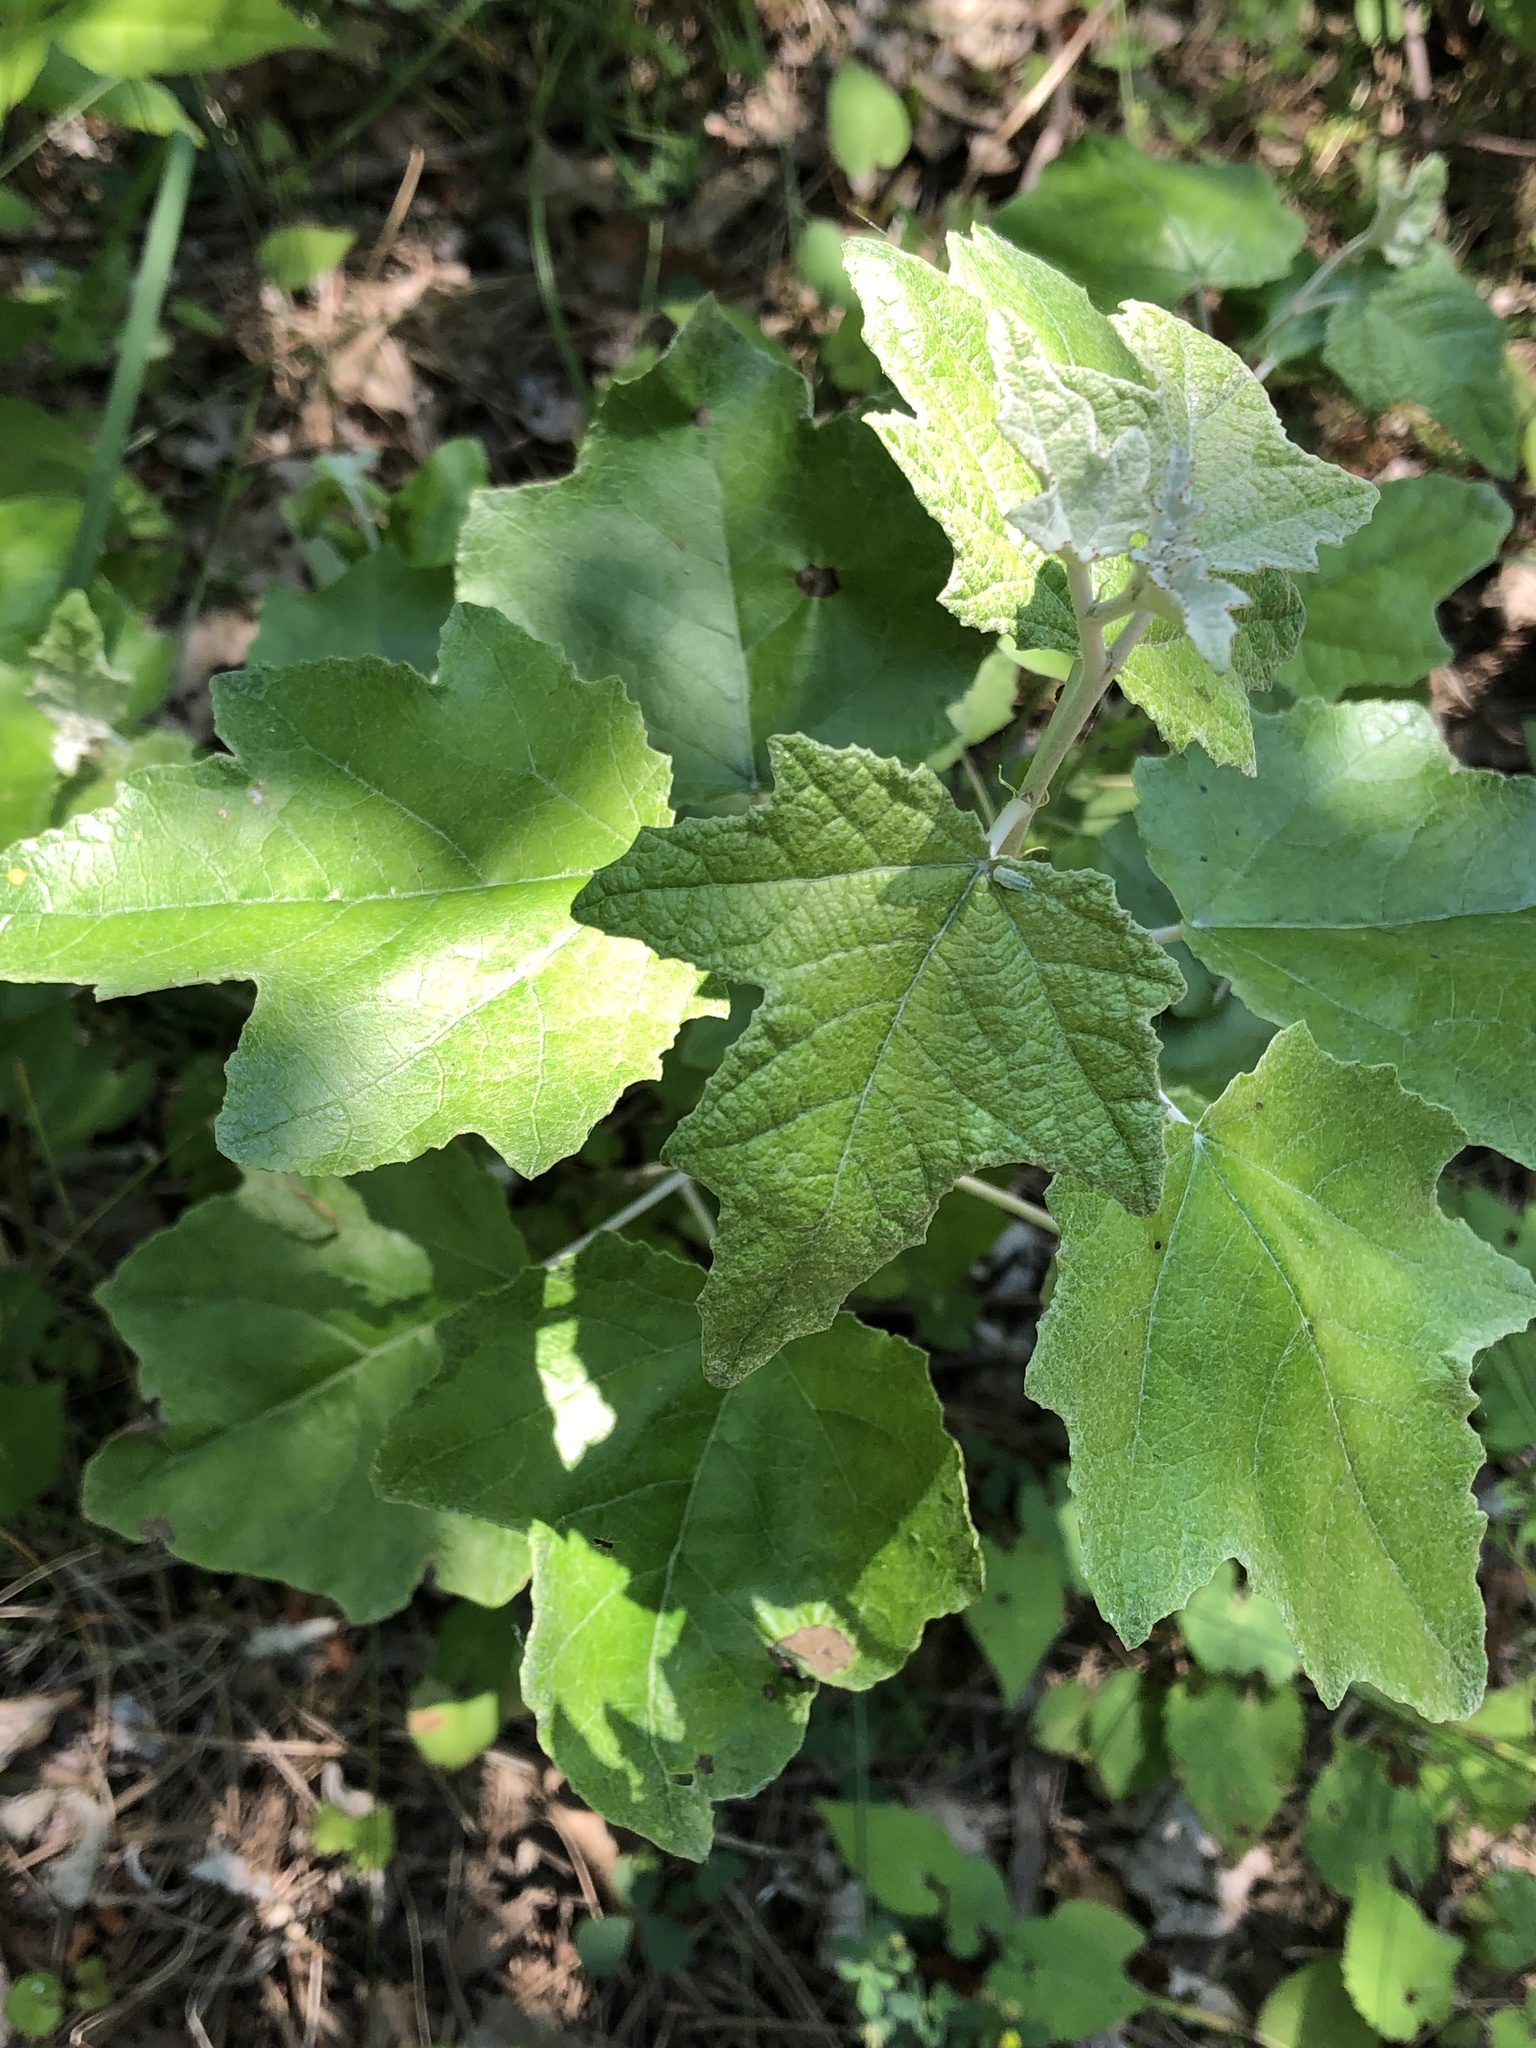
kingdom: Plantae
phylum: Tracheophyta
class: Magnoliopsida
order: Malpighiales
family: Salicaceae
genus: Populus
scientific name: Populus alba
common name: White poplar
